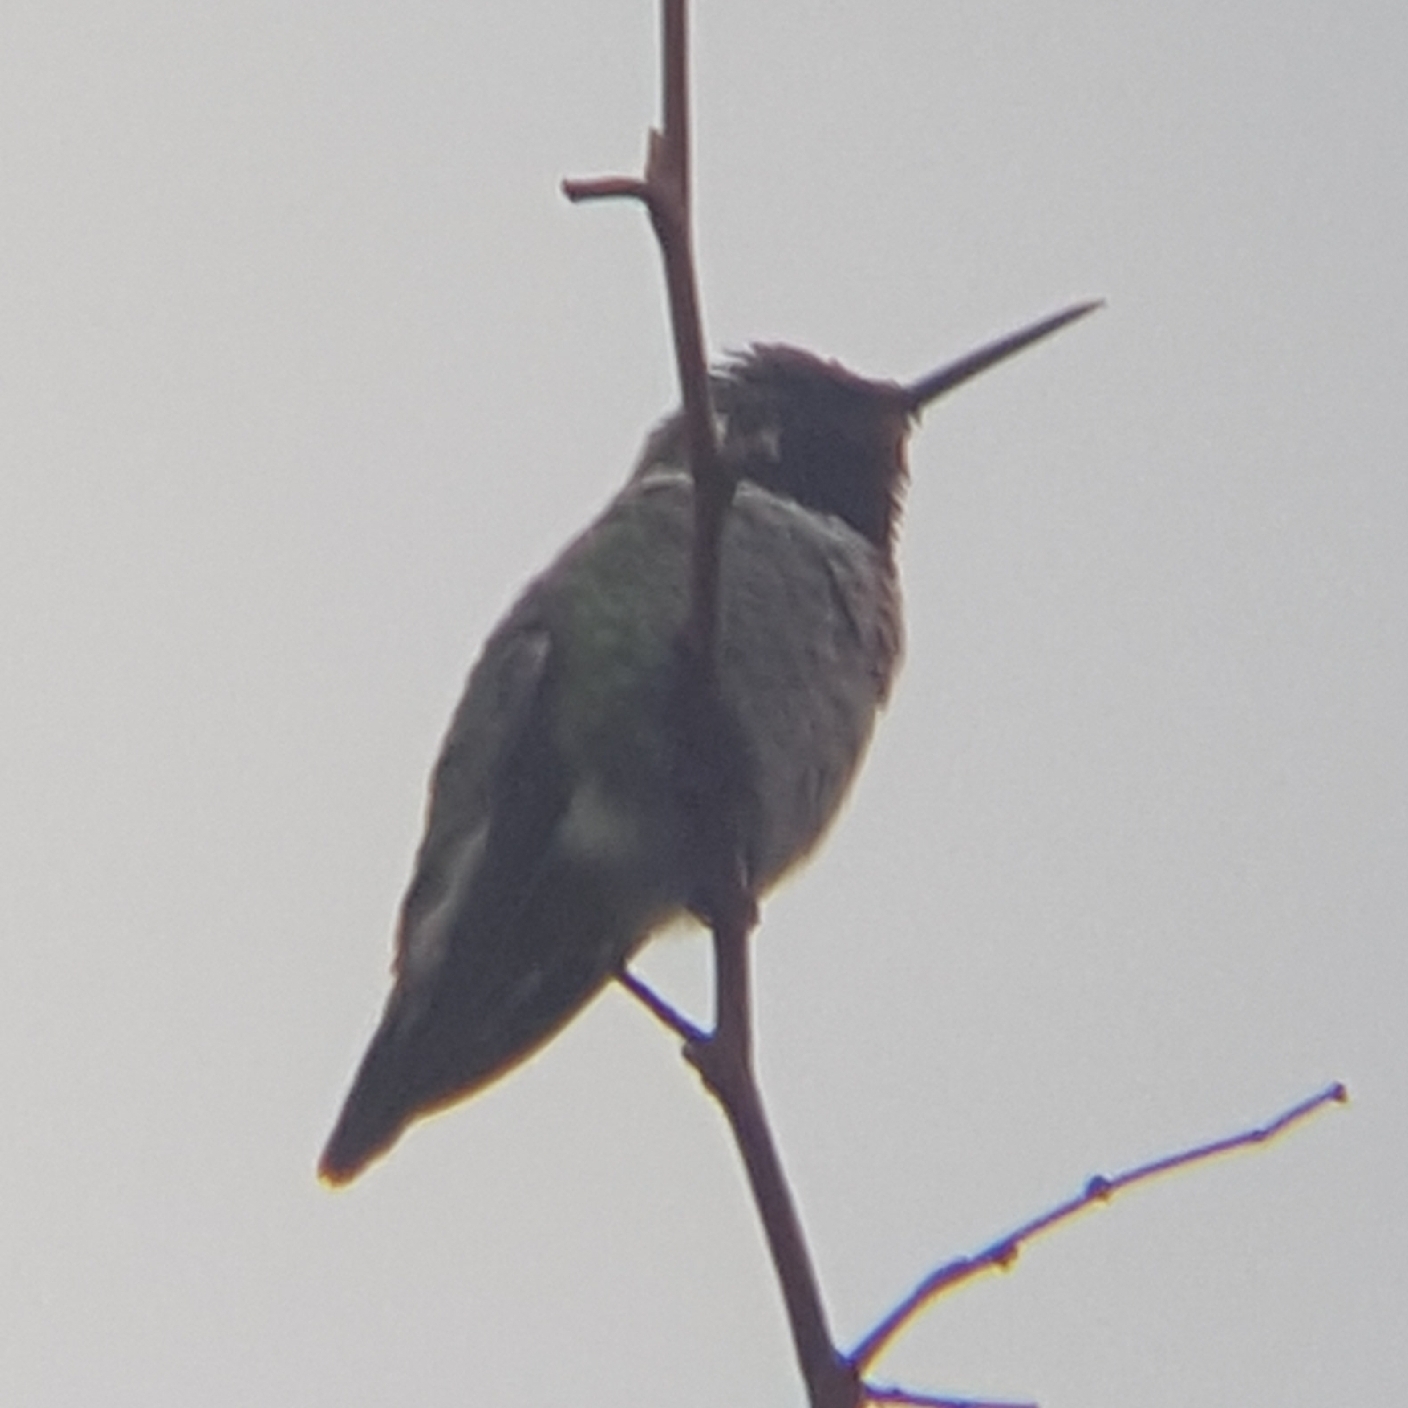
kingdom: Animalia
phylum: Chordata
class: Aves
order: Apodiformes
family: Trochilidae
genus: Calypte
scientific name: Calypte anna
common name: Anna's hummingbird
